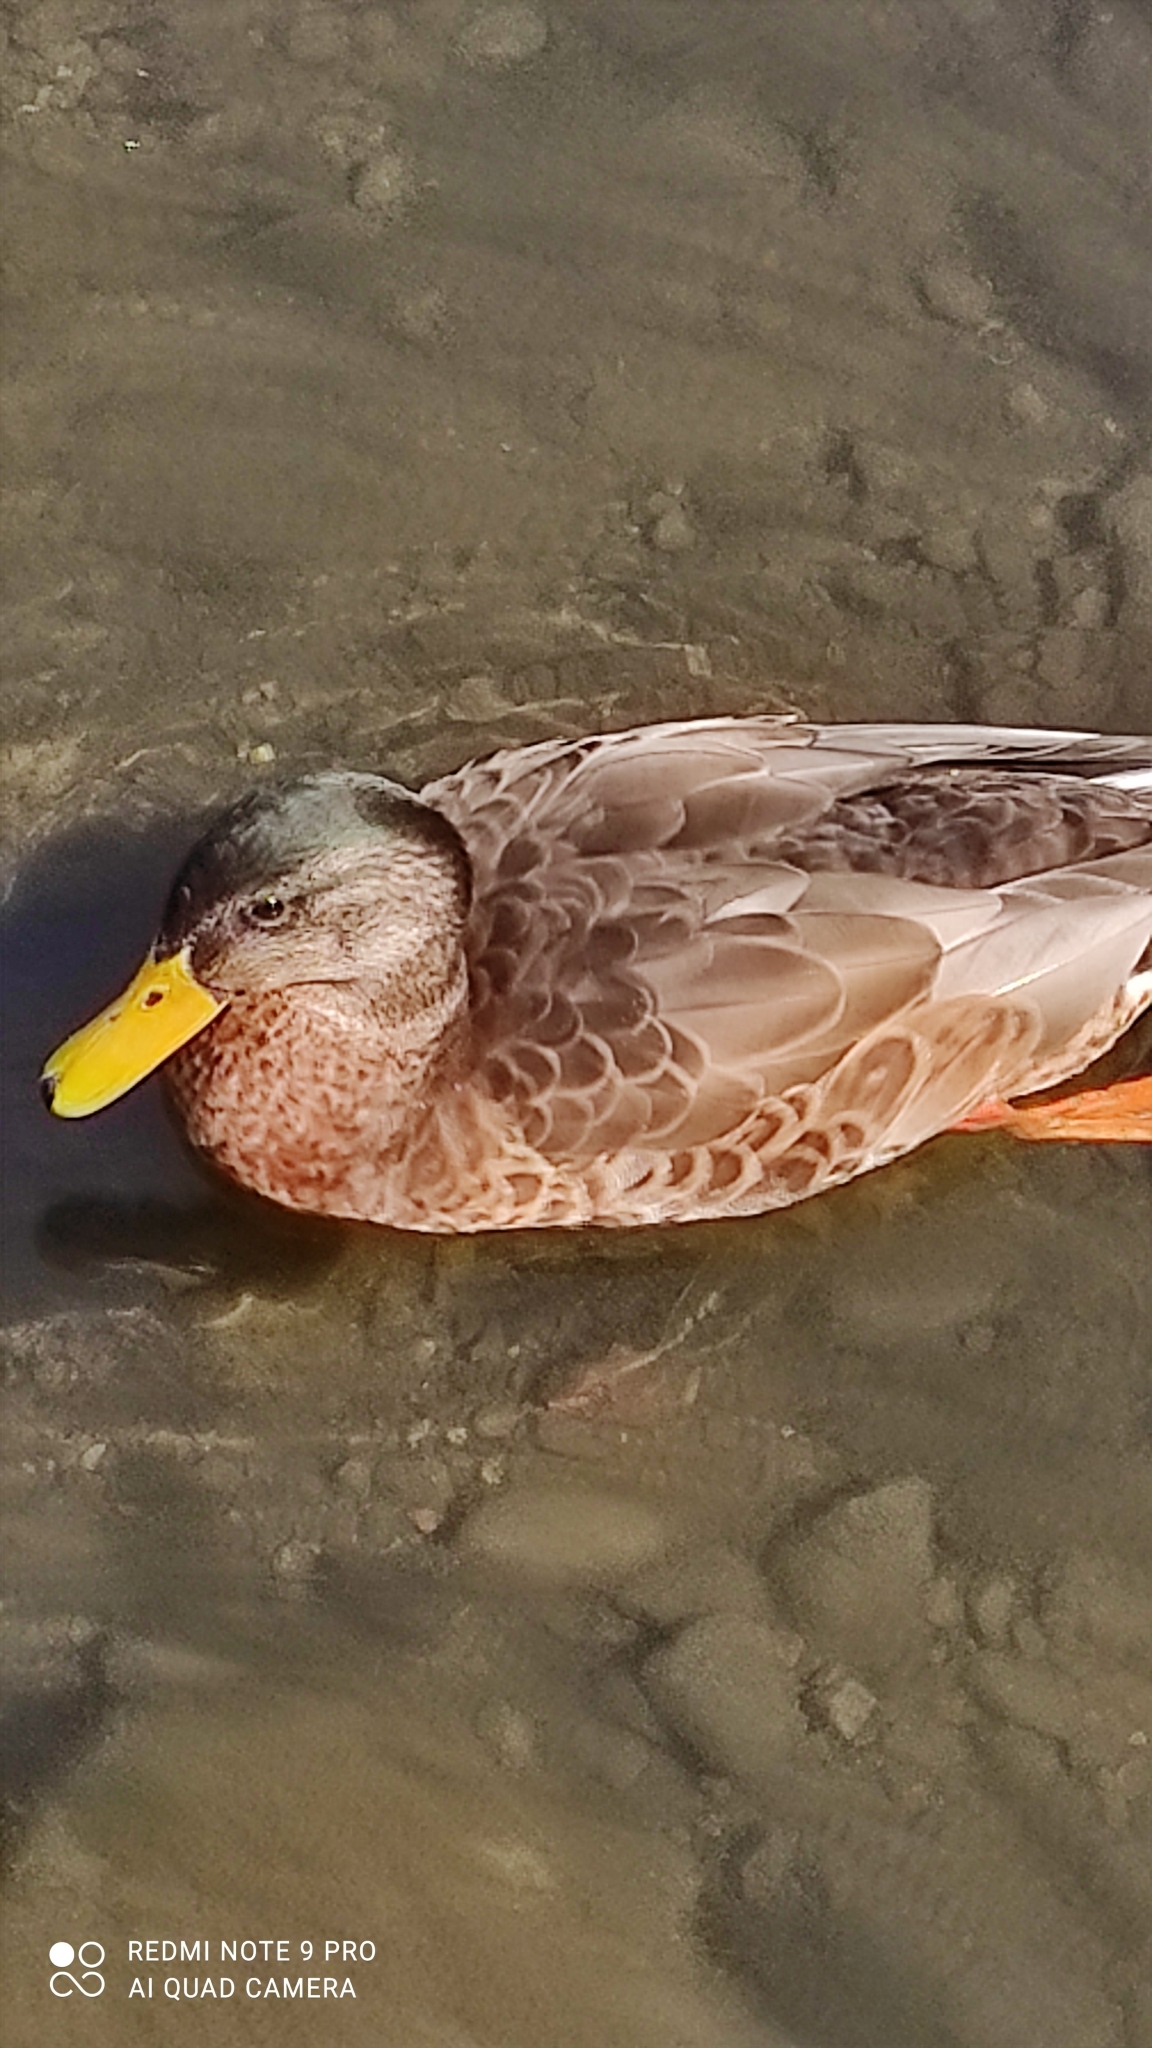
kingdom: Animalia
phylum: Chordata
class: Aves
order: Anseriformes
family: Anatidae
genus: Anas
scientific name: Anas platyrhynchos
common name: Mallard
